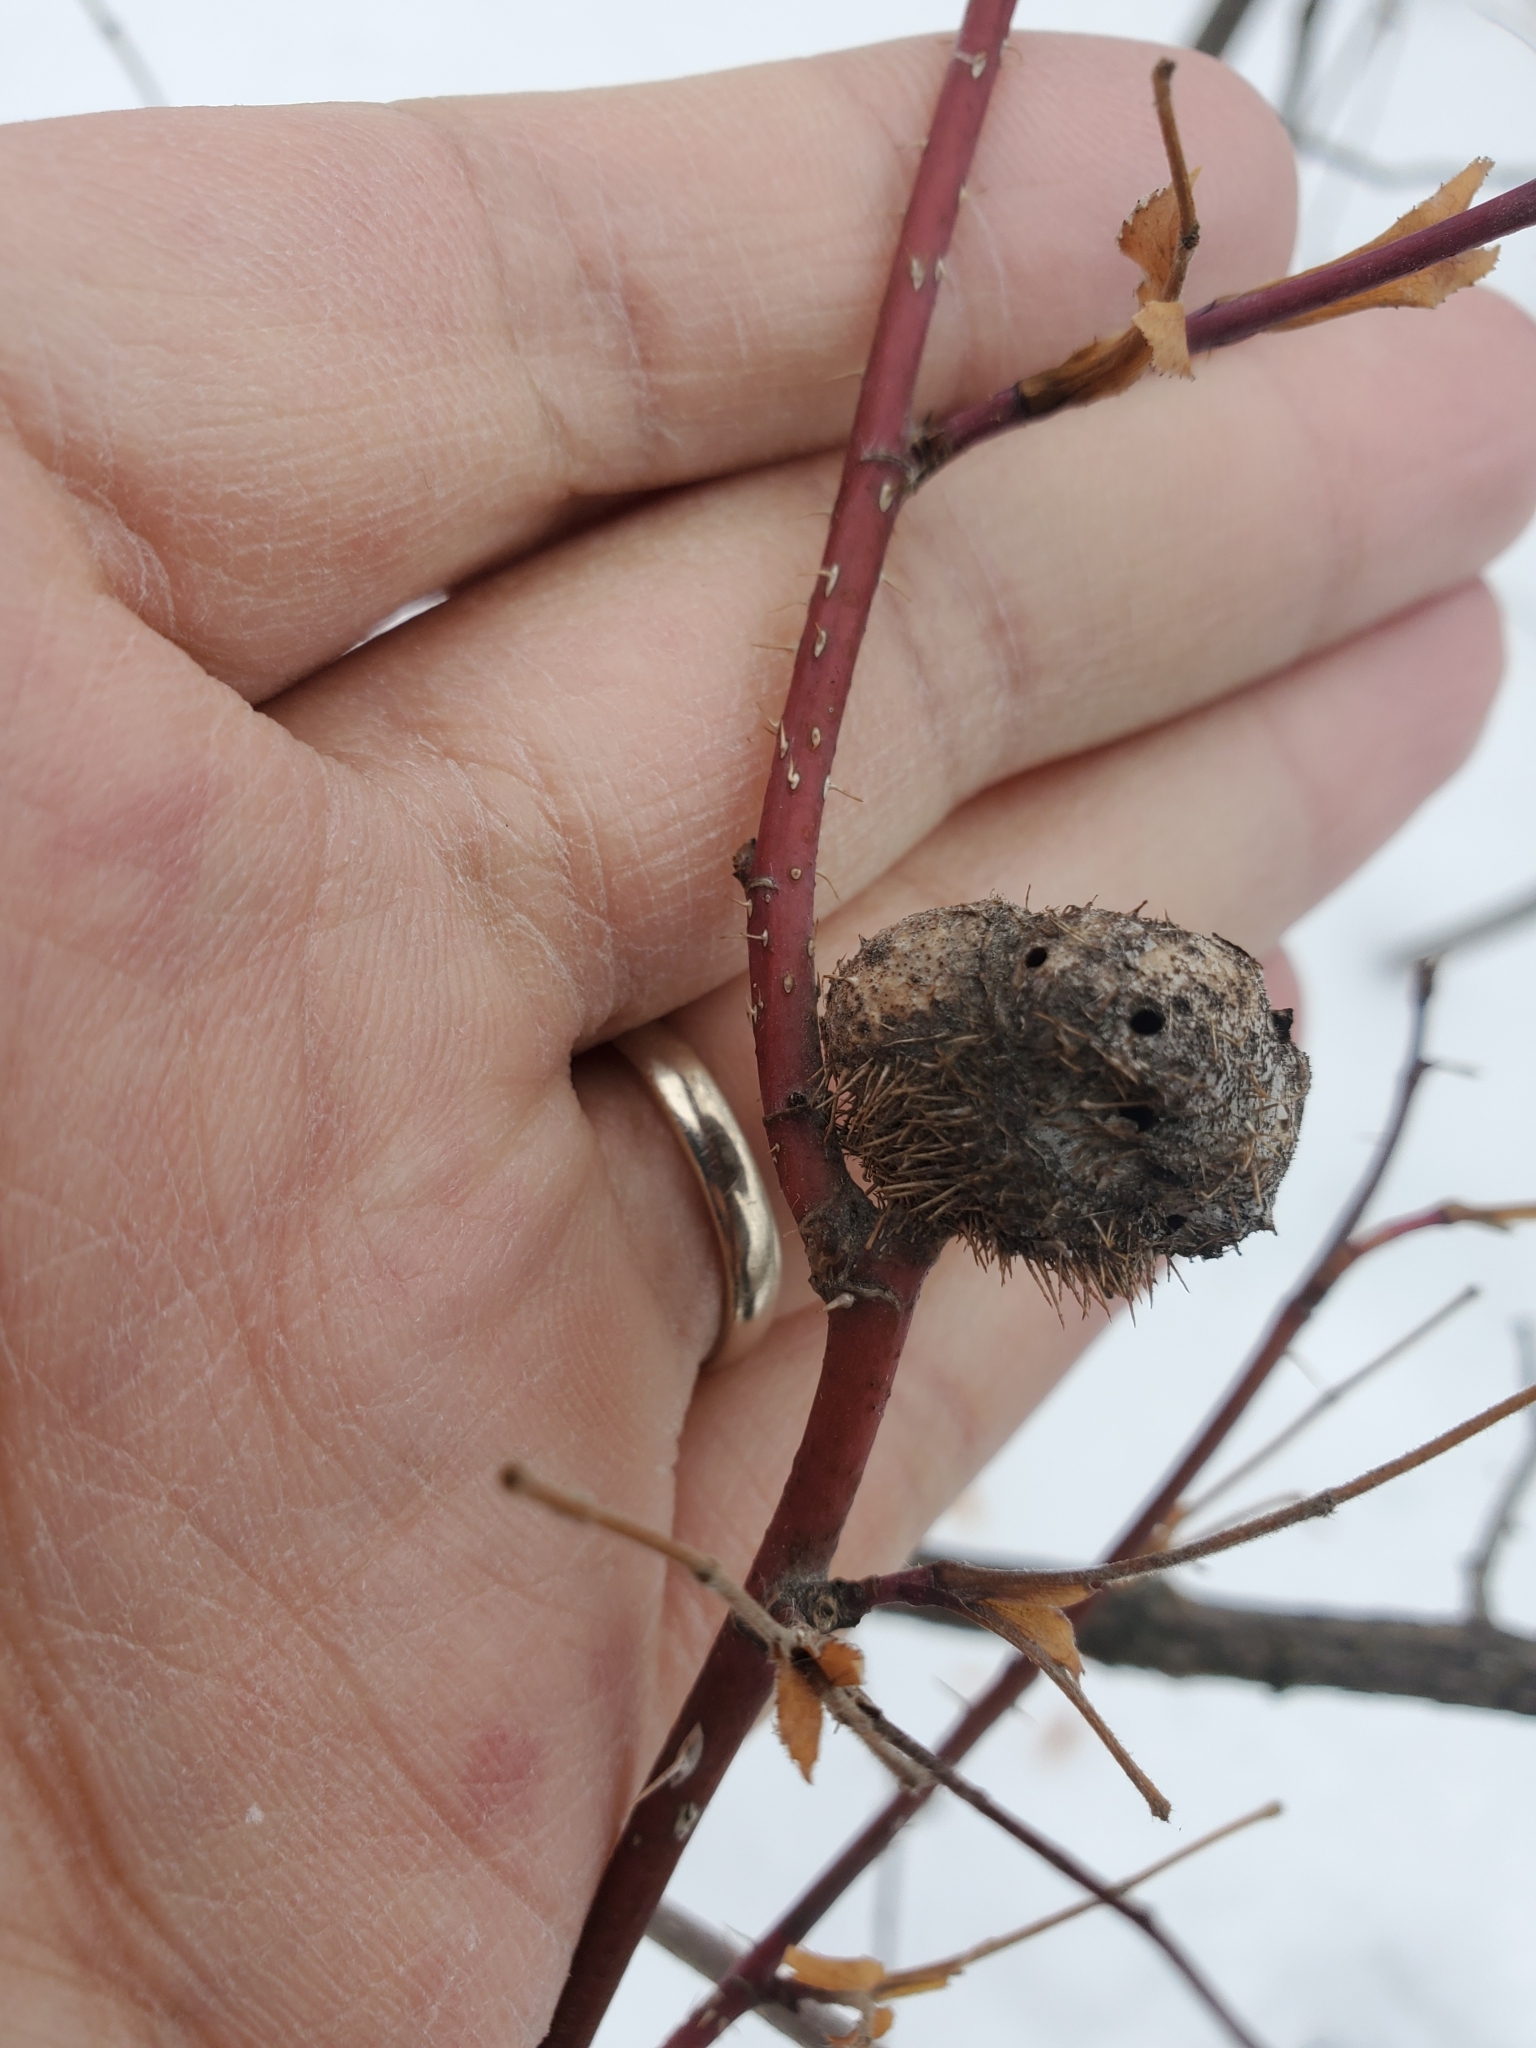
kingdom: Animalia
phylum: Arthropoda
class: Insecta
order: Hymenoptera
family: Cynipidae
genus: Diplolepis
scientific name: Diplolepis spinosa
